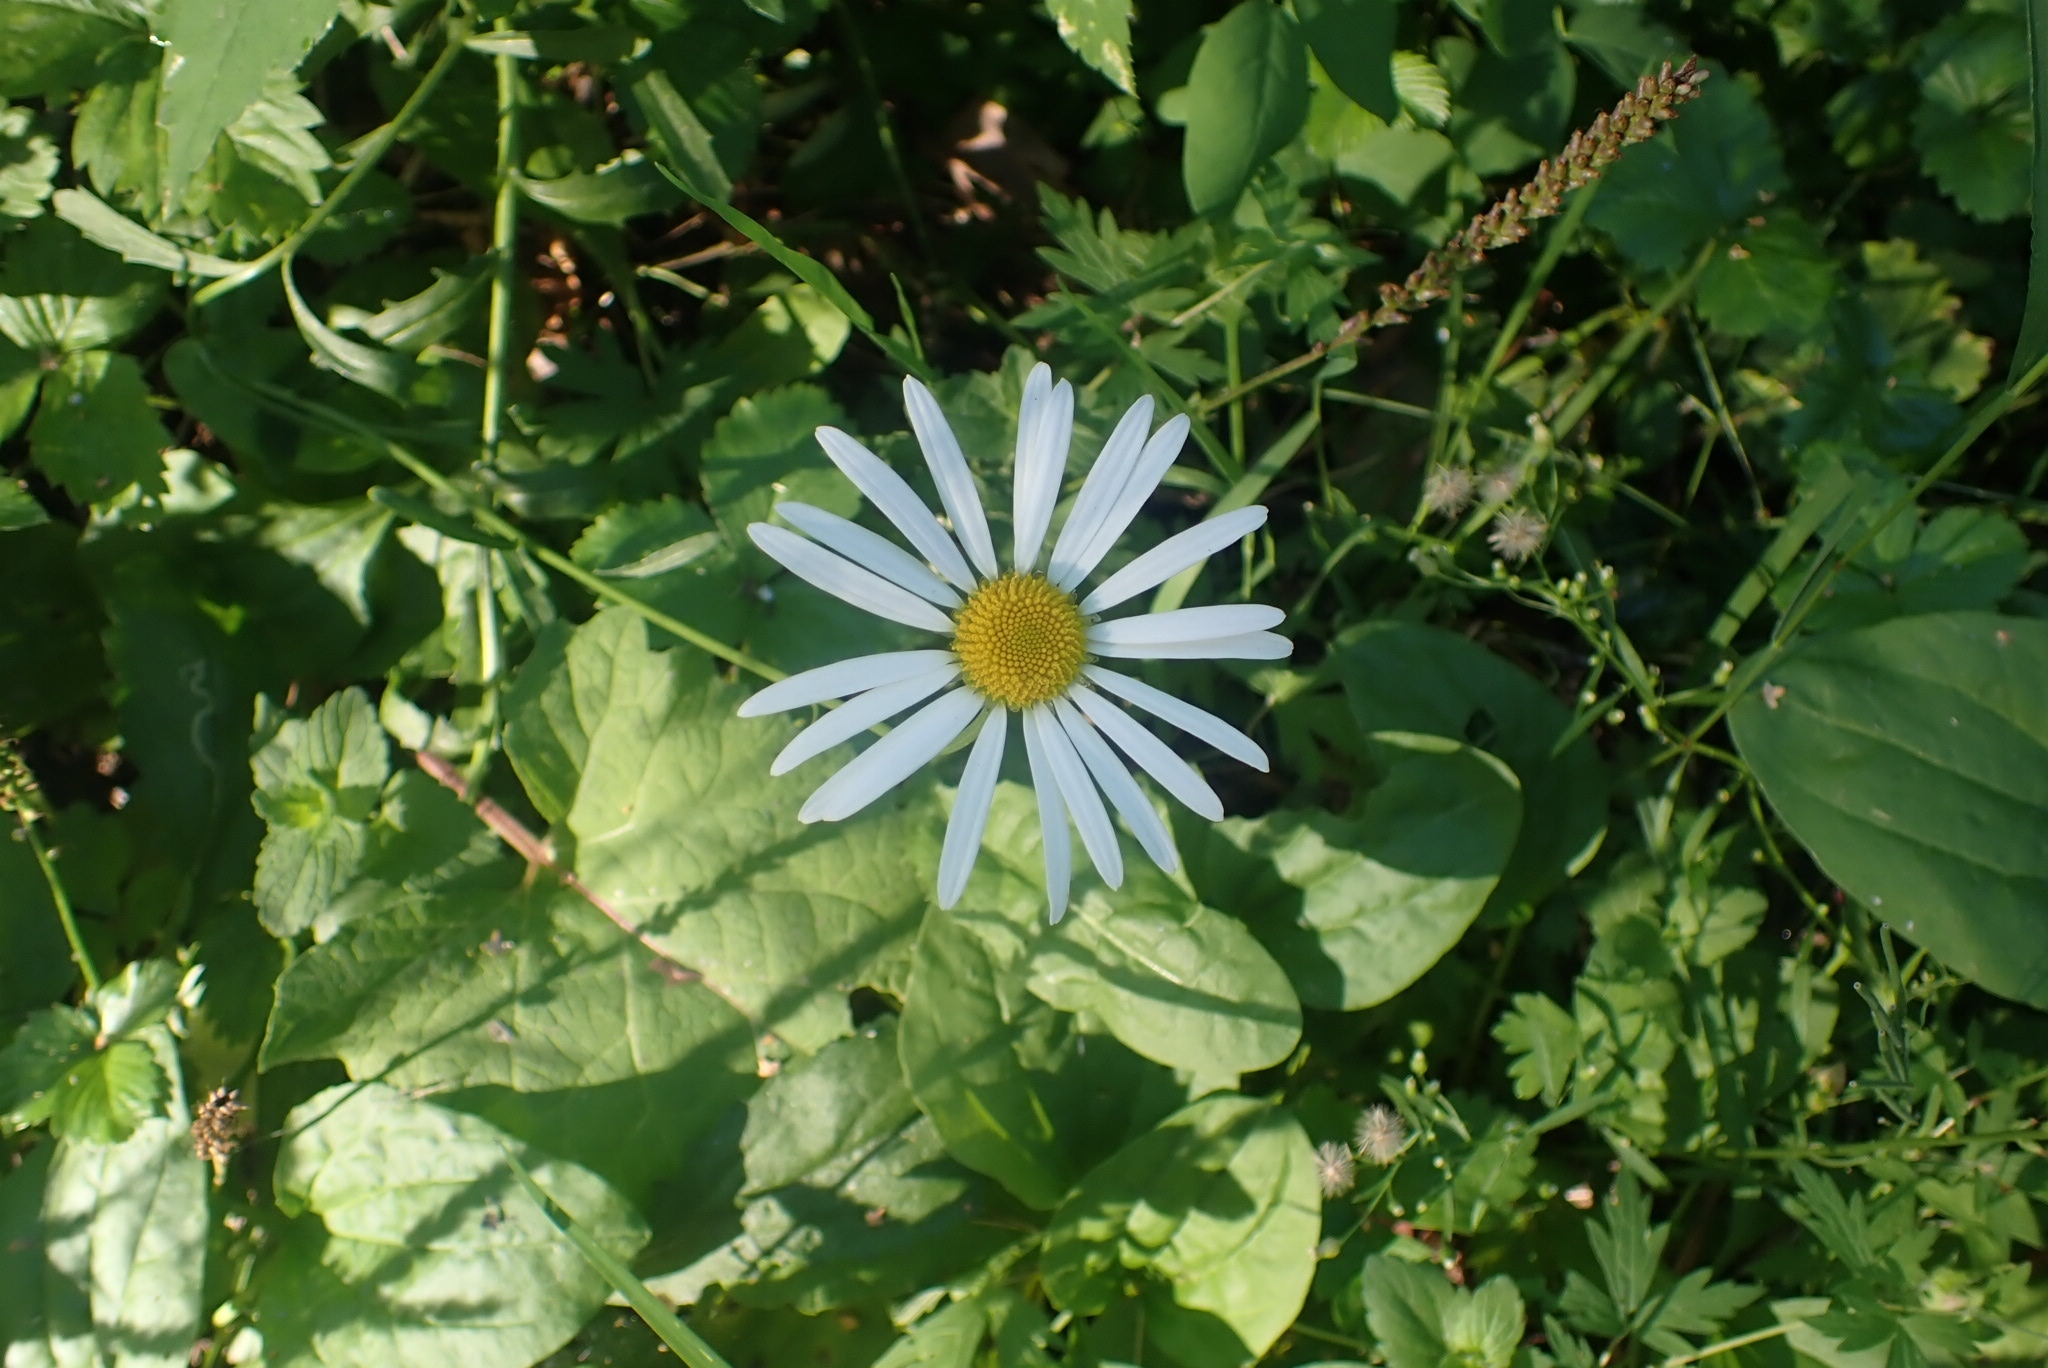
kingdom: Plantae
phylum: Tracheophyta
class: Magnoliopsida
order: Asterales
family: Asteraceae
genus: Leucanthemum
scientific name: Leucanthemum vulgare
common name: Oxeye daisy
